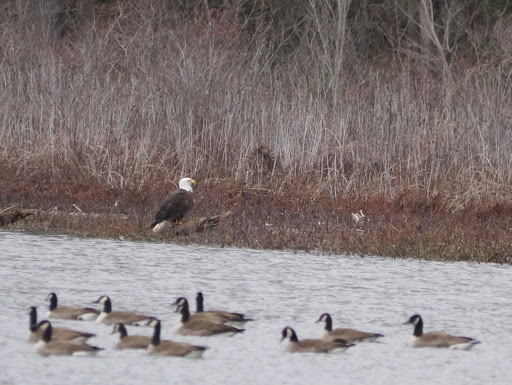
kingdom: Animalia
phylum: Chordata
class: Aves
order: Accipitriformes
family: Accipitridae
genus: Haliaeetus
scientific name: Haliaeetus leucocephalus
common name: Bald eagle
